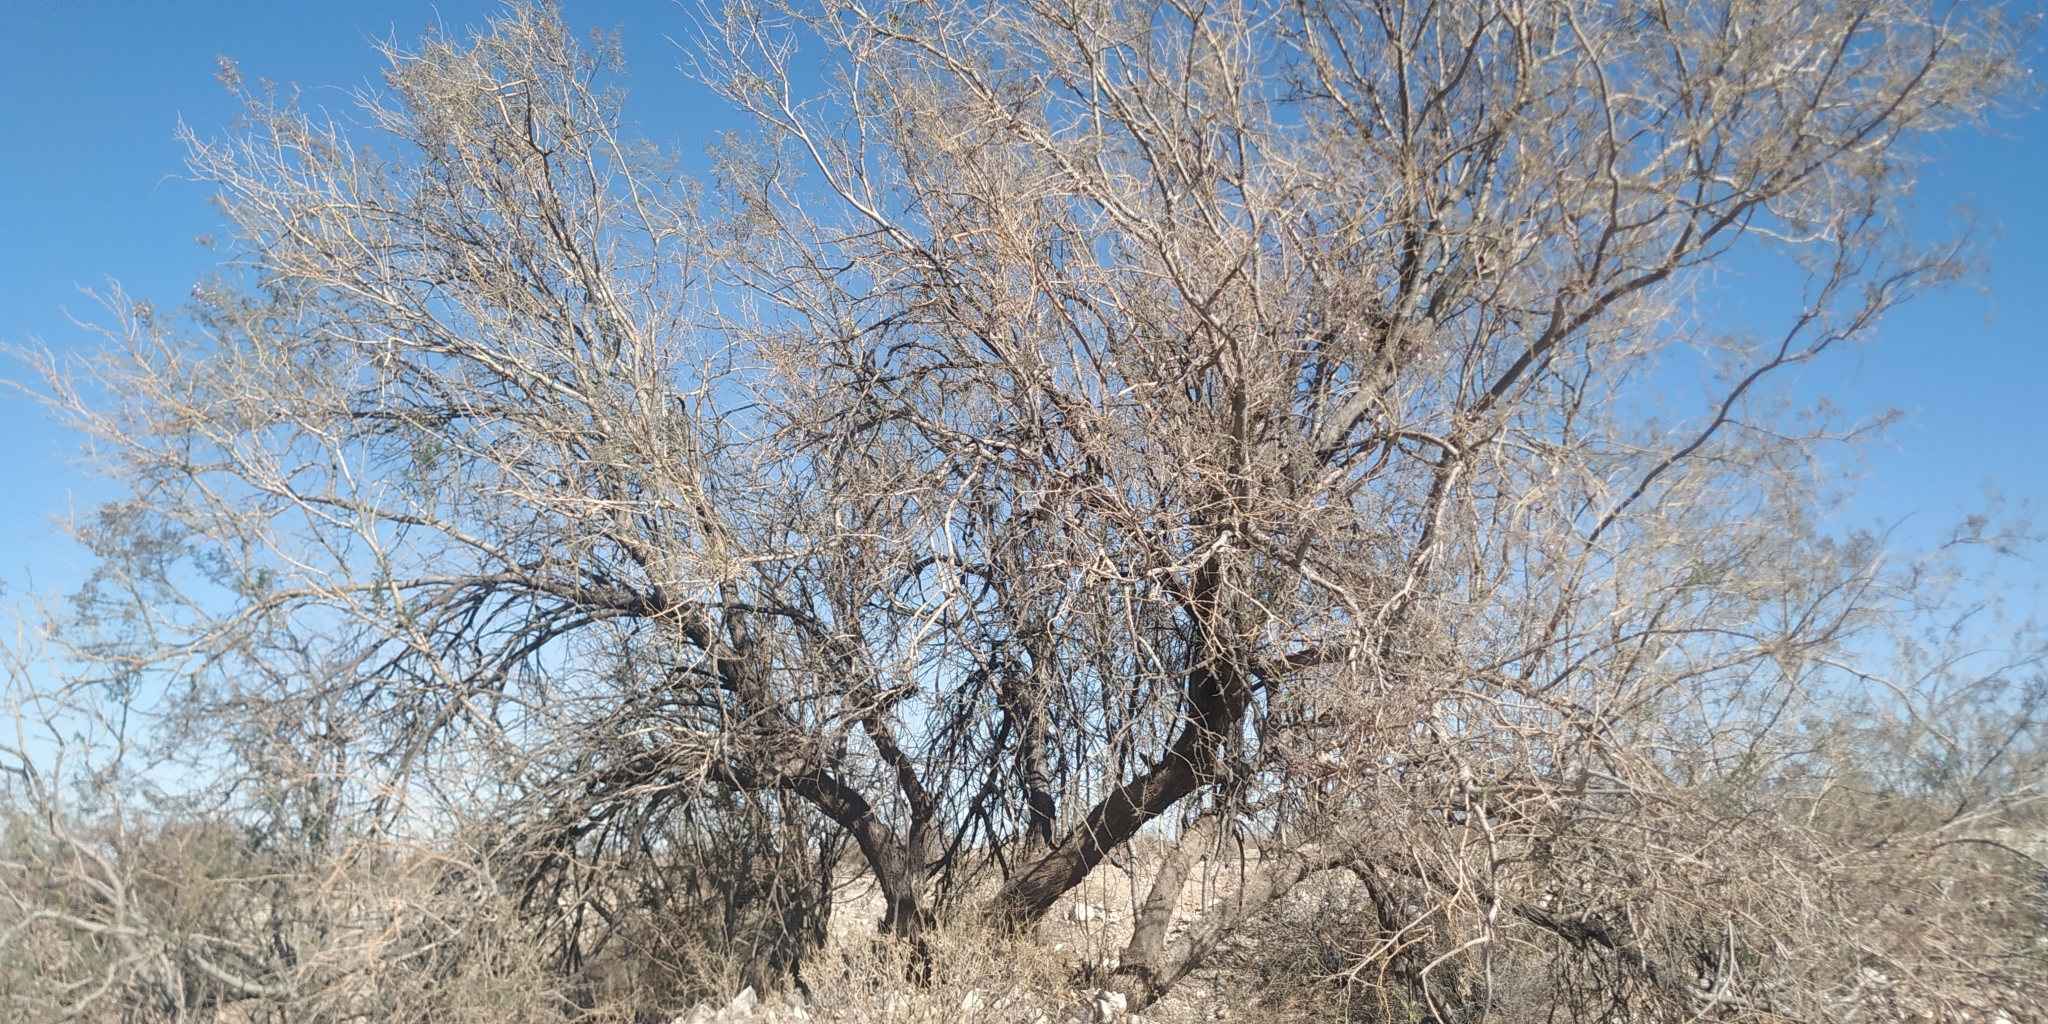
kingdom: Plantae
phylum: Tracheophyta
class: Magnoliopsida
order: Fabales
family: Fabaceae
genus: Olneya
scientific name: Olneya tesota
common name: Desert ironwood
